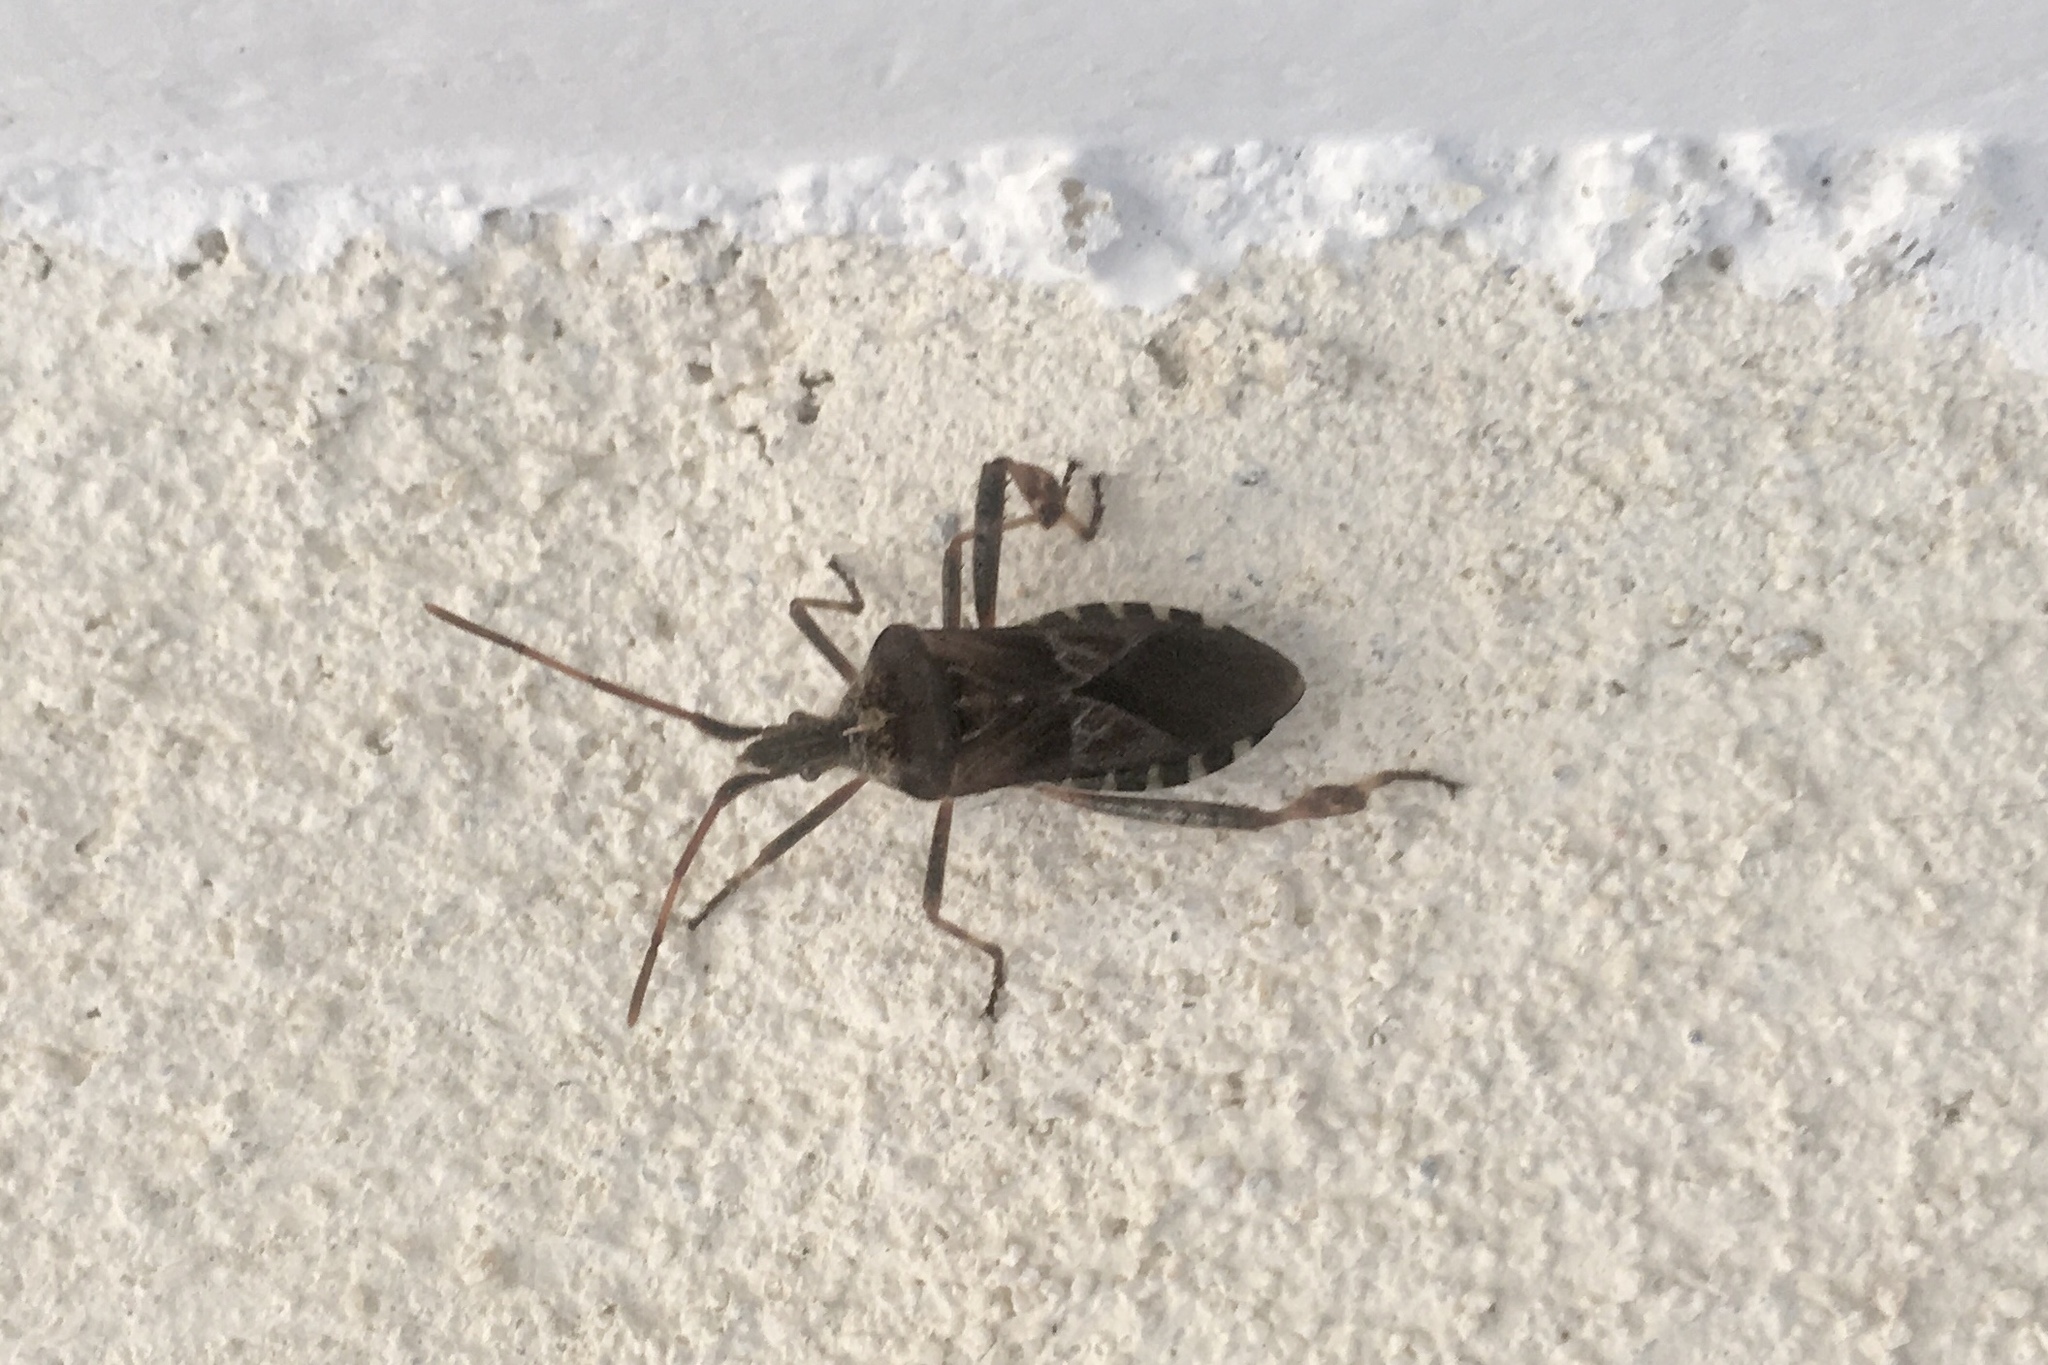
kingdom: Animalia
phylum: Arthropoda
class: Insecta
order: Hemiptera
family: Coreidae
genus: Leptoglossus
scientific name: Leptoglossus occidentalis
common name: Western conifer-seed bug
